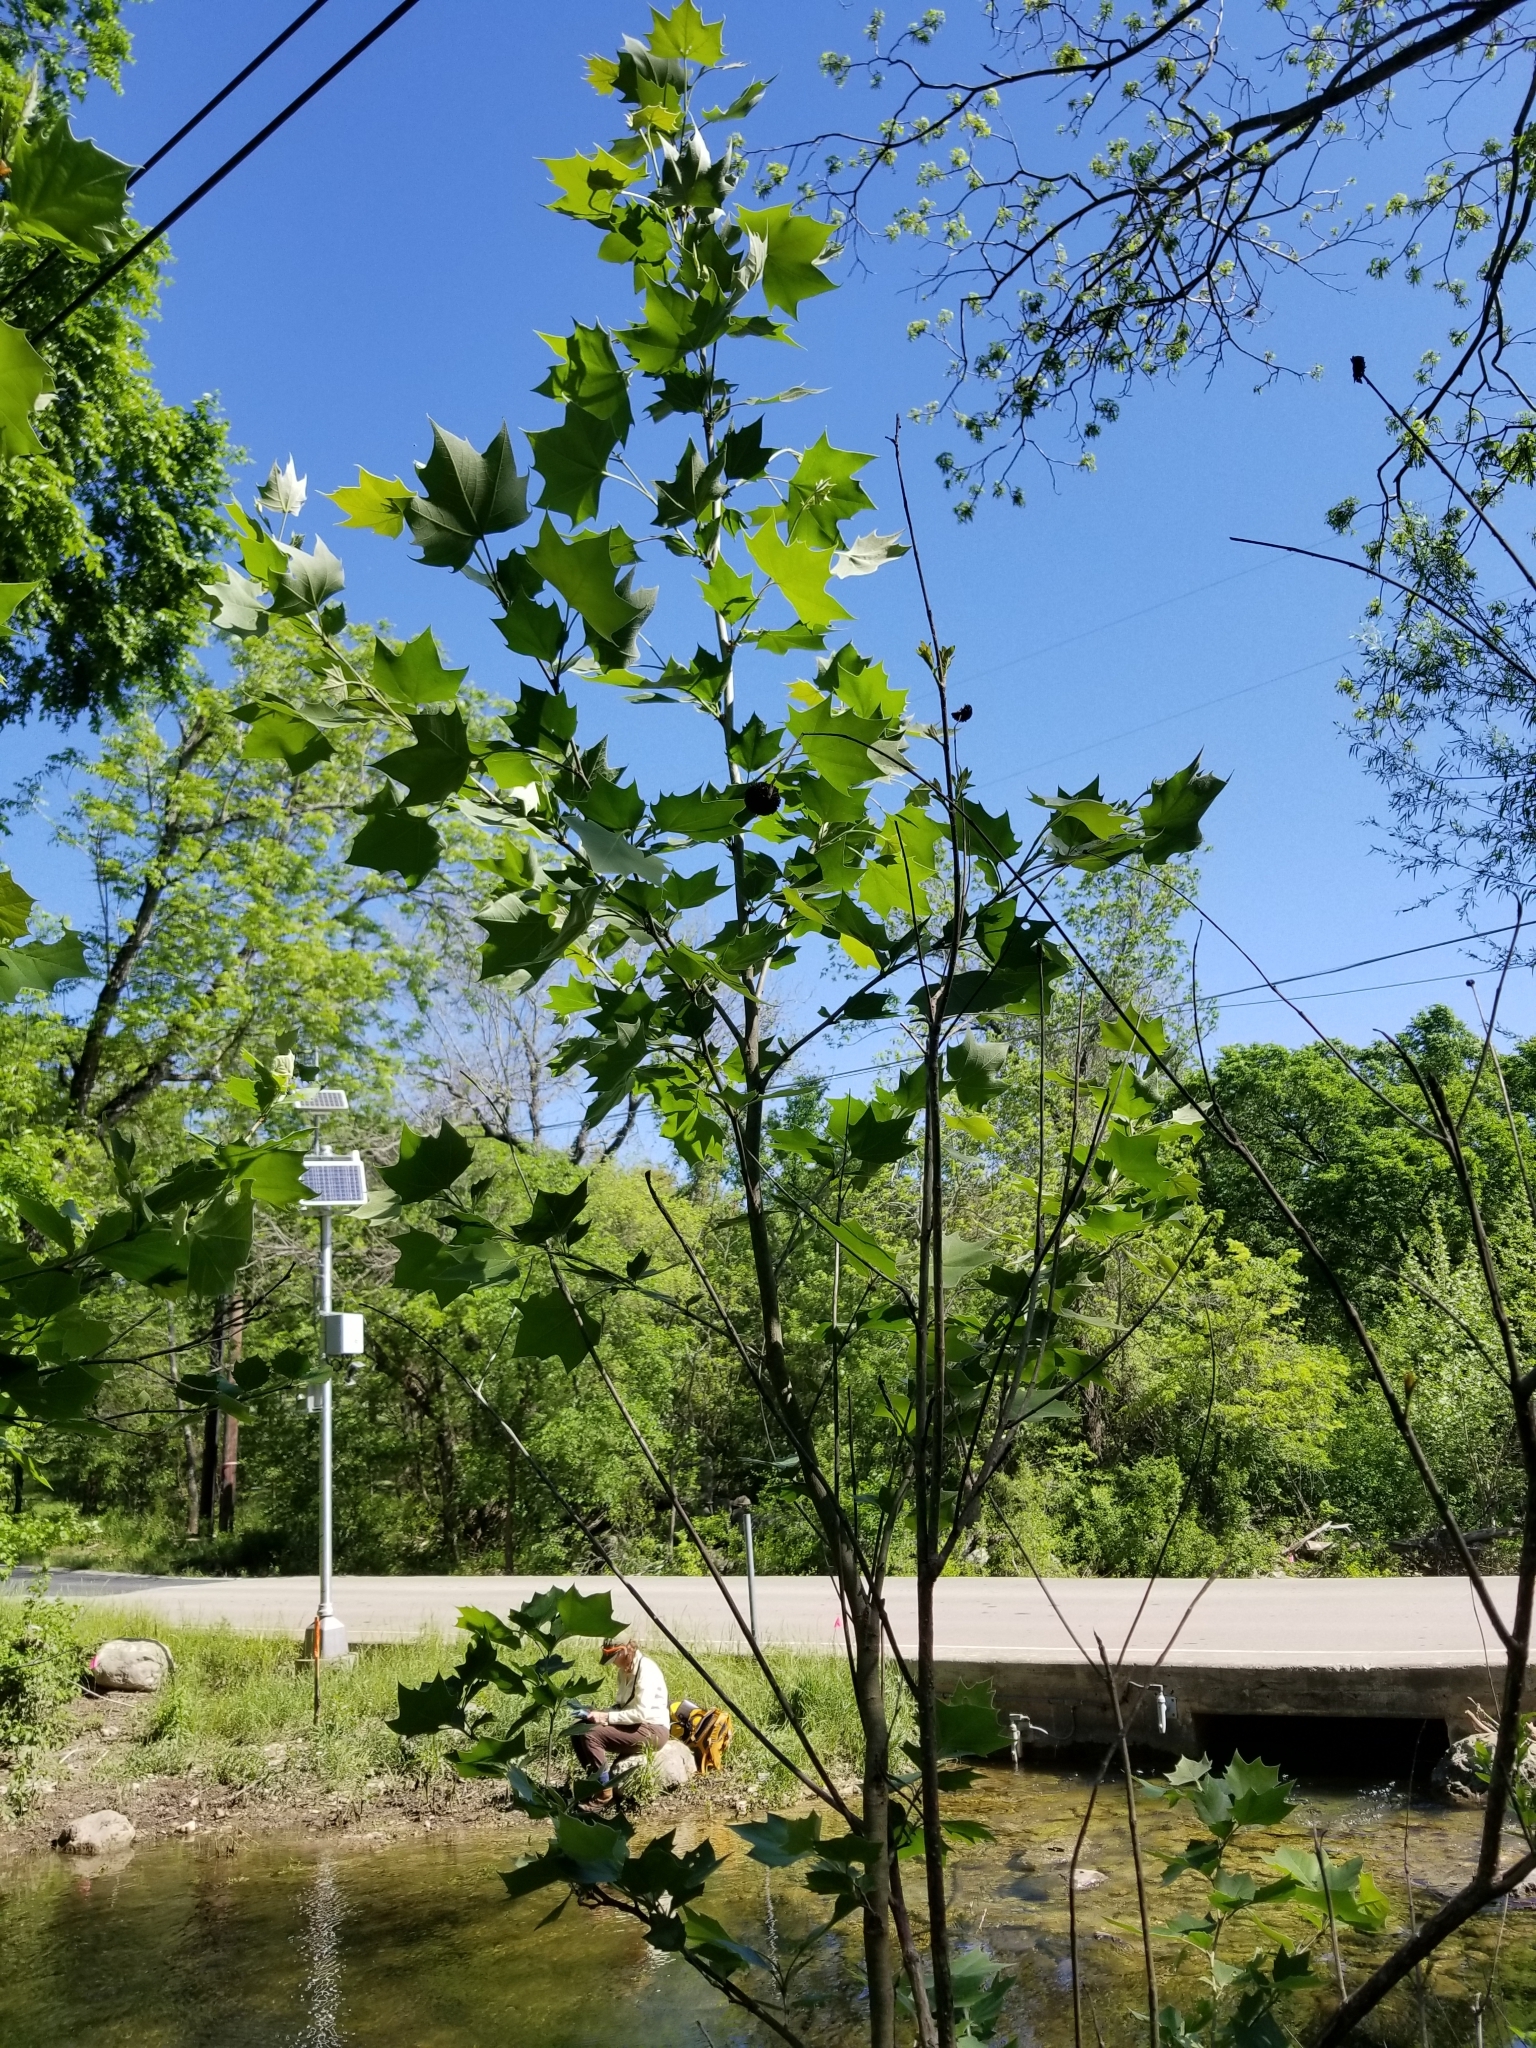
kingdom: Plantae
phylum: Tracheophyta
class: Magnoliopsida
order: Proteales
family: Platanaceae
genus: Platanus
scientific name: Platanus occidentalis
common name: American sycamore
